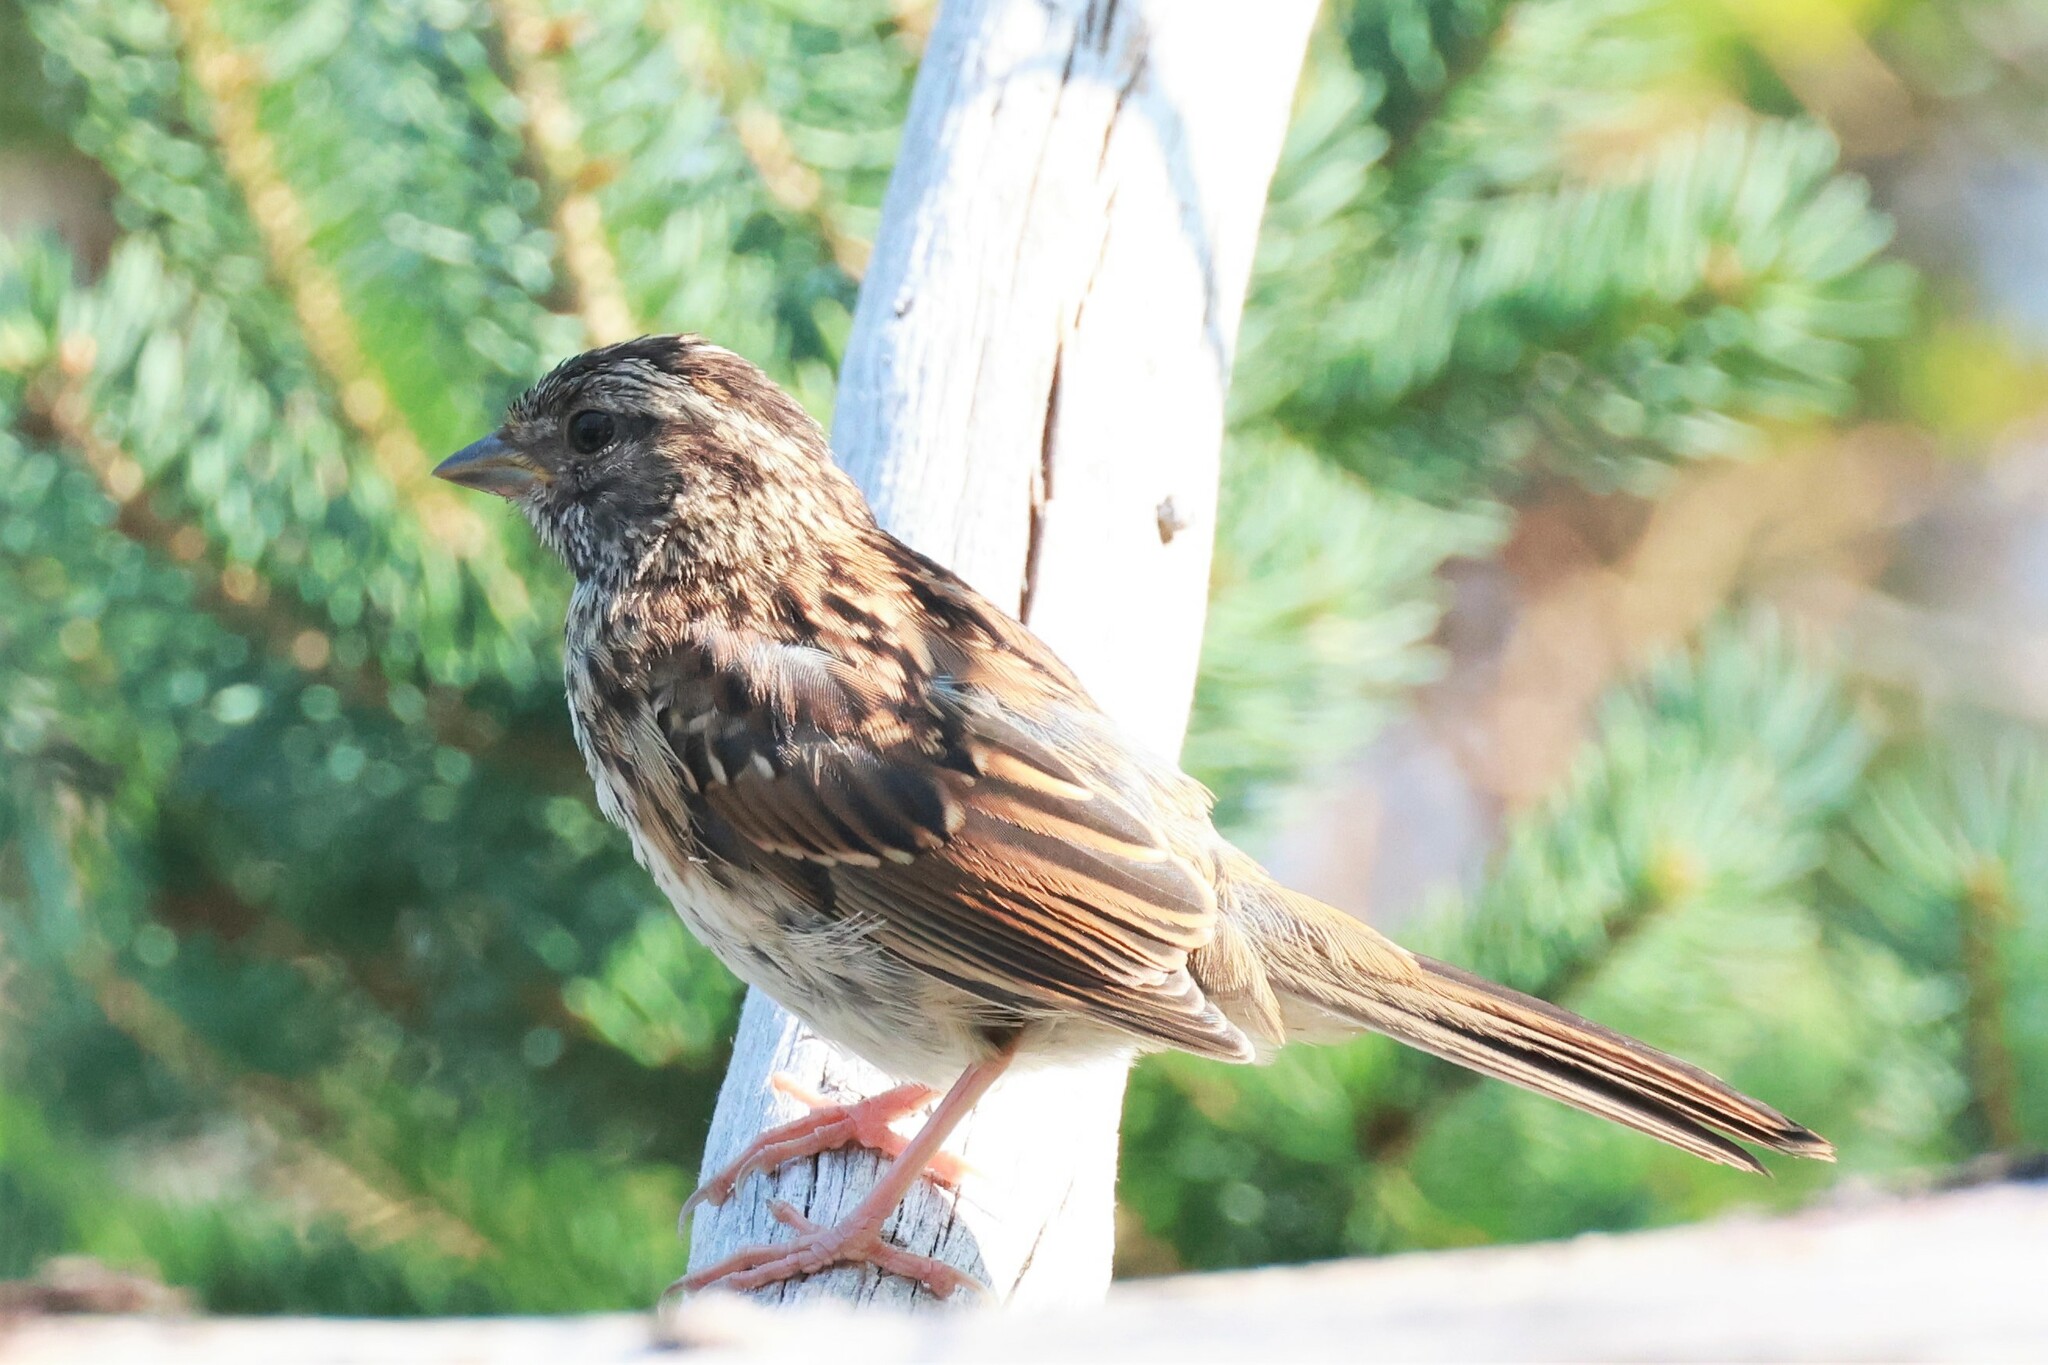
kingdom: Animalia
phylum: Chordata
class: Aves
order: Passeriformes
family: Passerellidae
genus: Zonotrichia
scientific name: Zonotrichia albicollis
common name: White-throated sparrow
